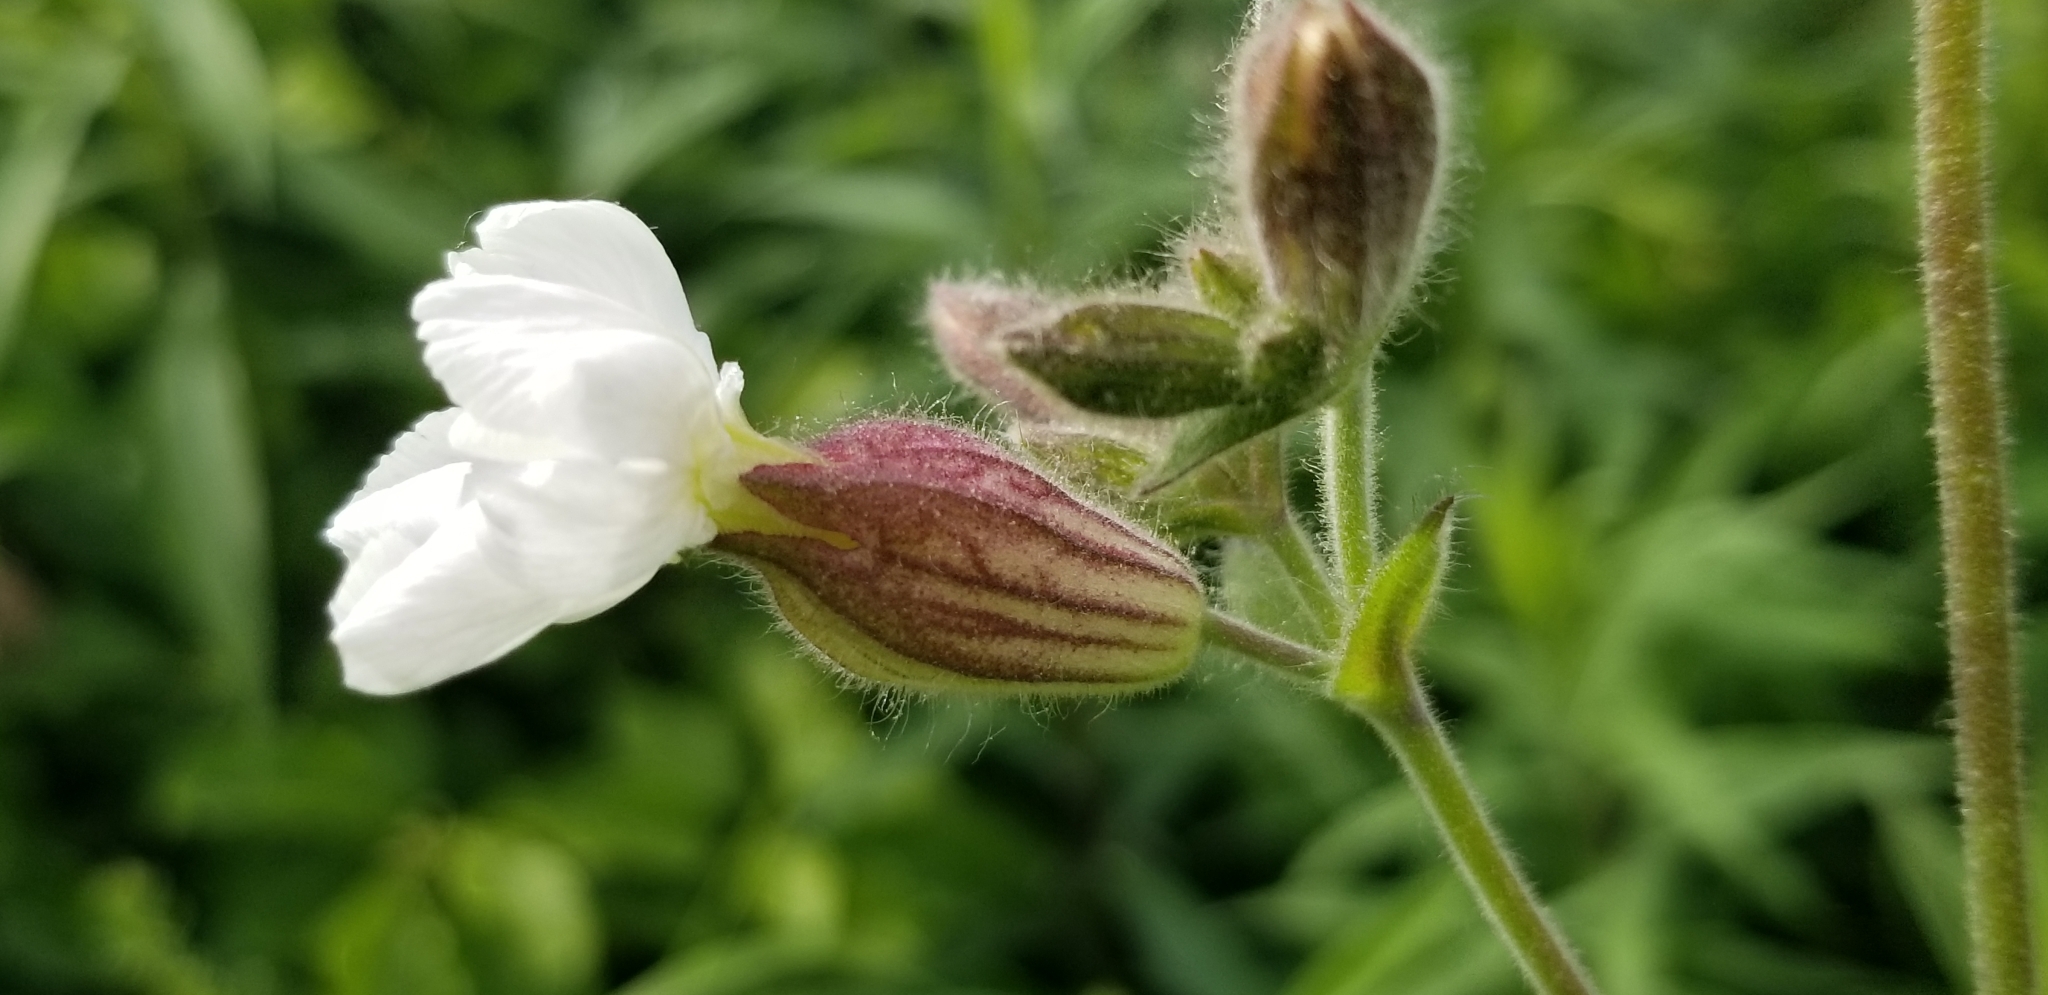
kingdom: Plantae
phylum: Tracheophyta
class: Magnoliopsida
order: Caryophyllales
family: Caryophyllaceae
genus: Silene
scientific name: Silene latifolia
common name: White campion
